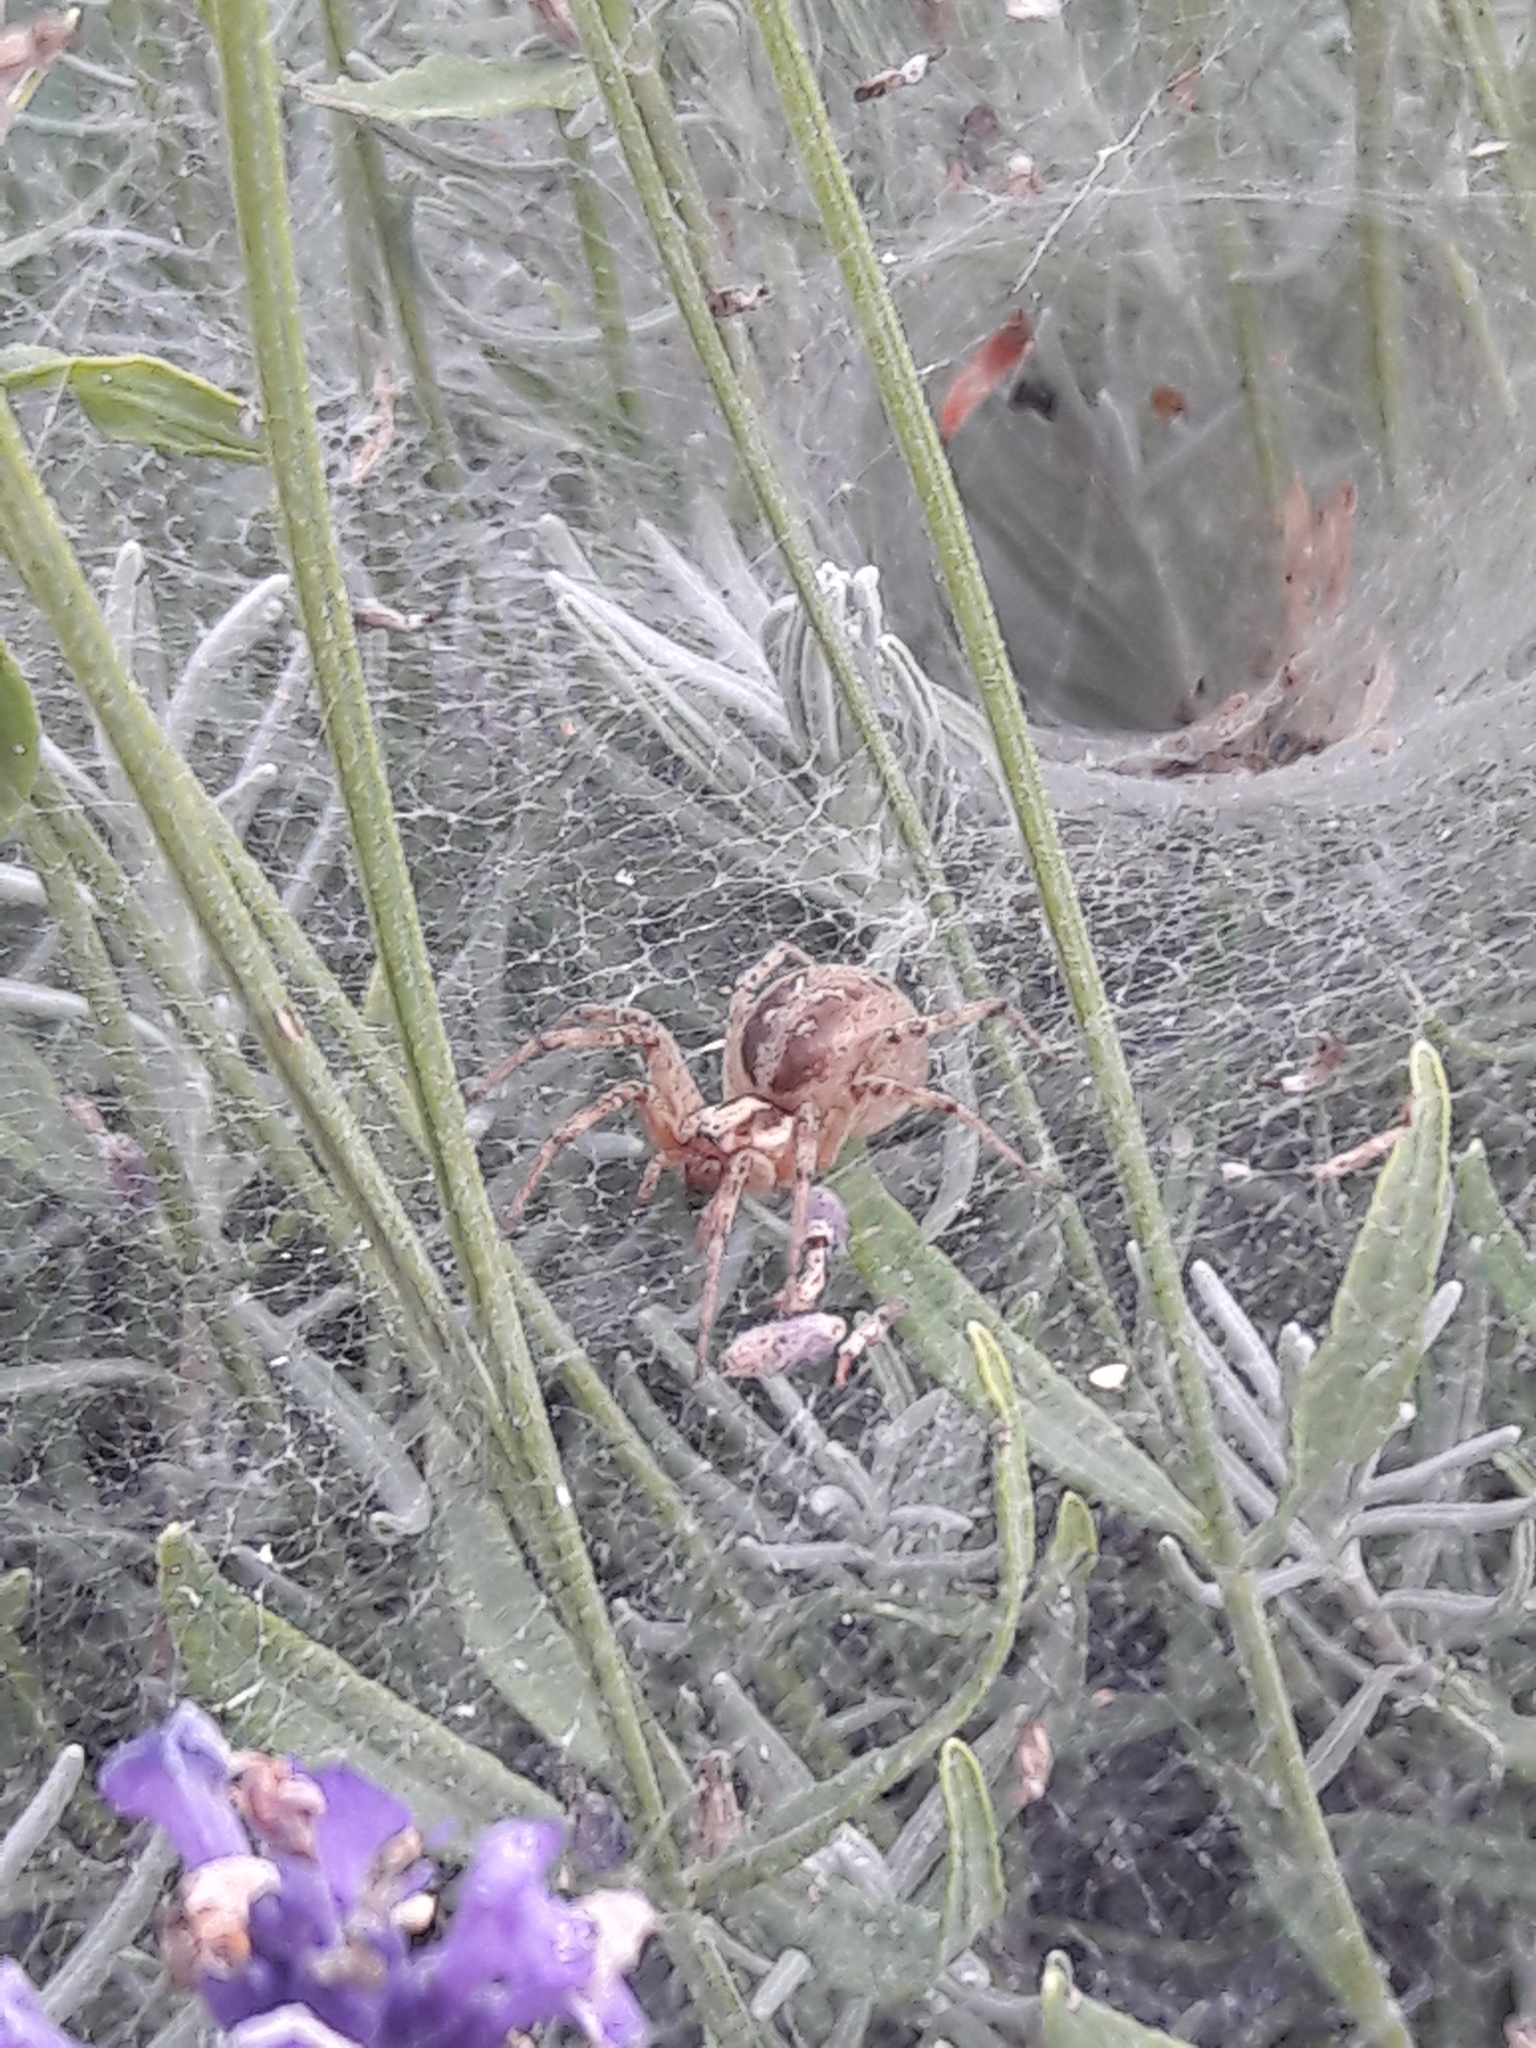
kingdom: Animalia
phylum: Arthropoda
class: Arachnida
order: Araneae
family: Agelenidae
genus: Agelena
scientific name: Agelena labyrinthica
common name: Labyrinth spider
